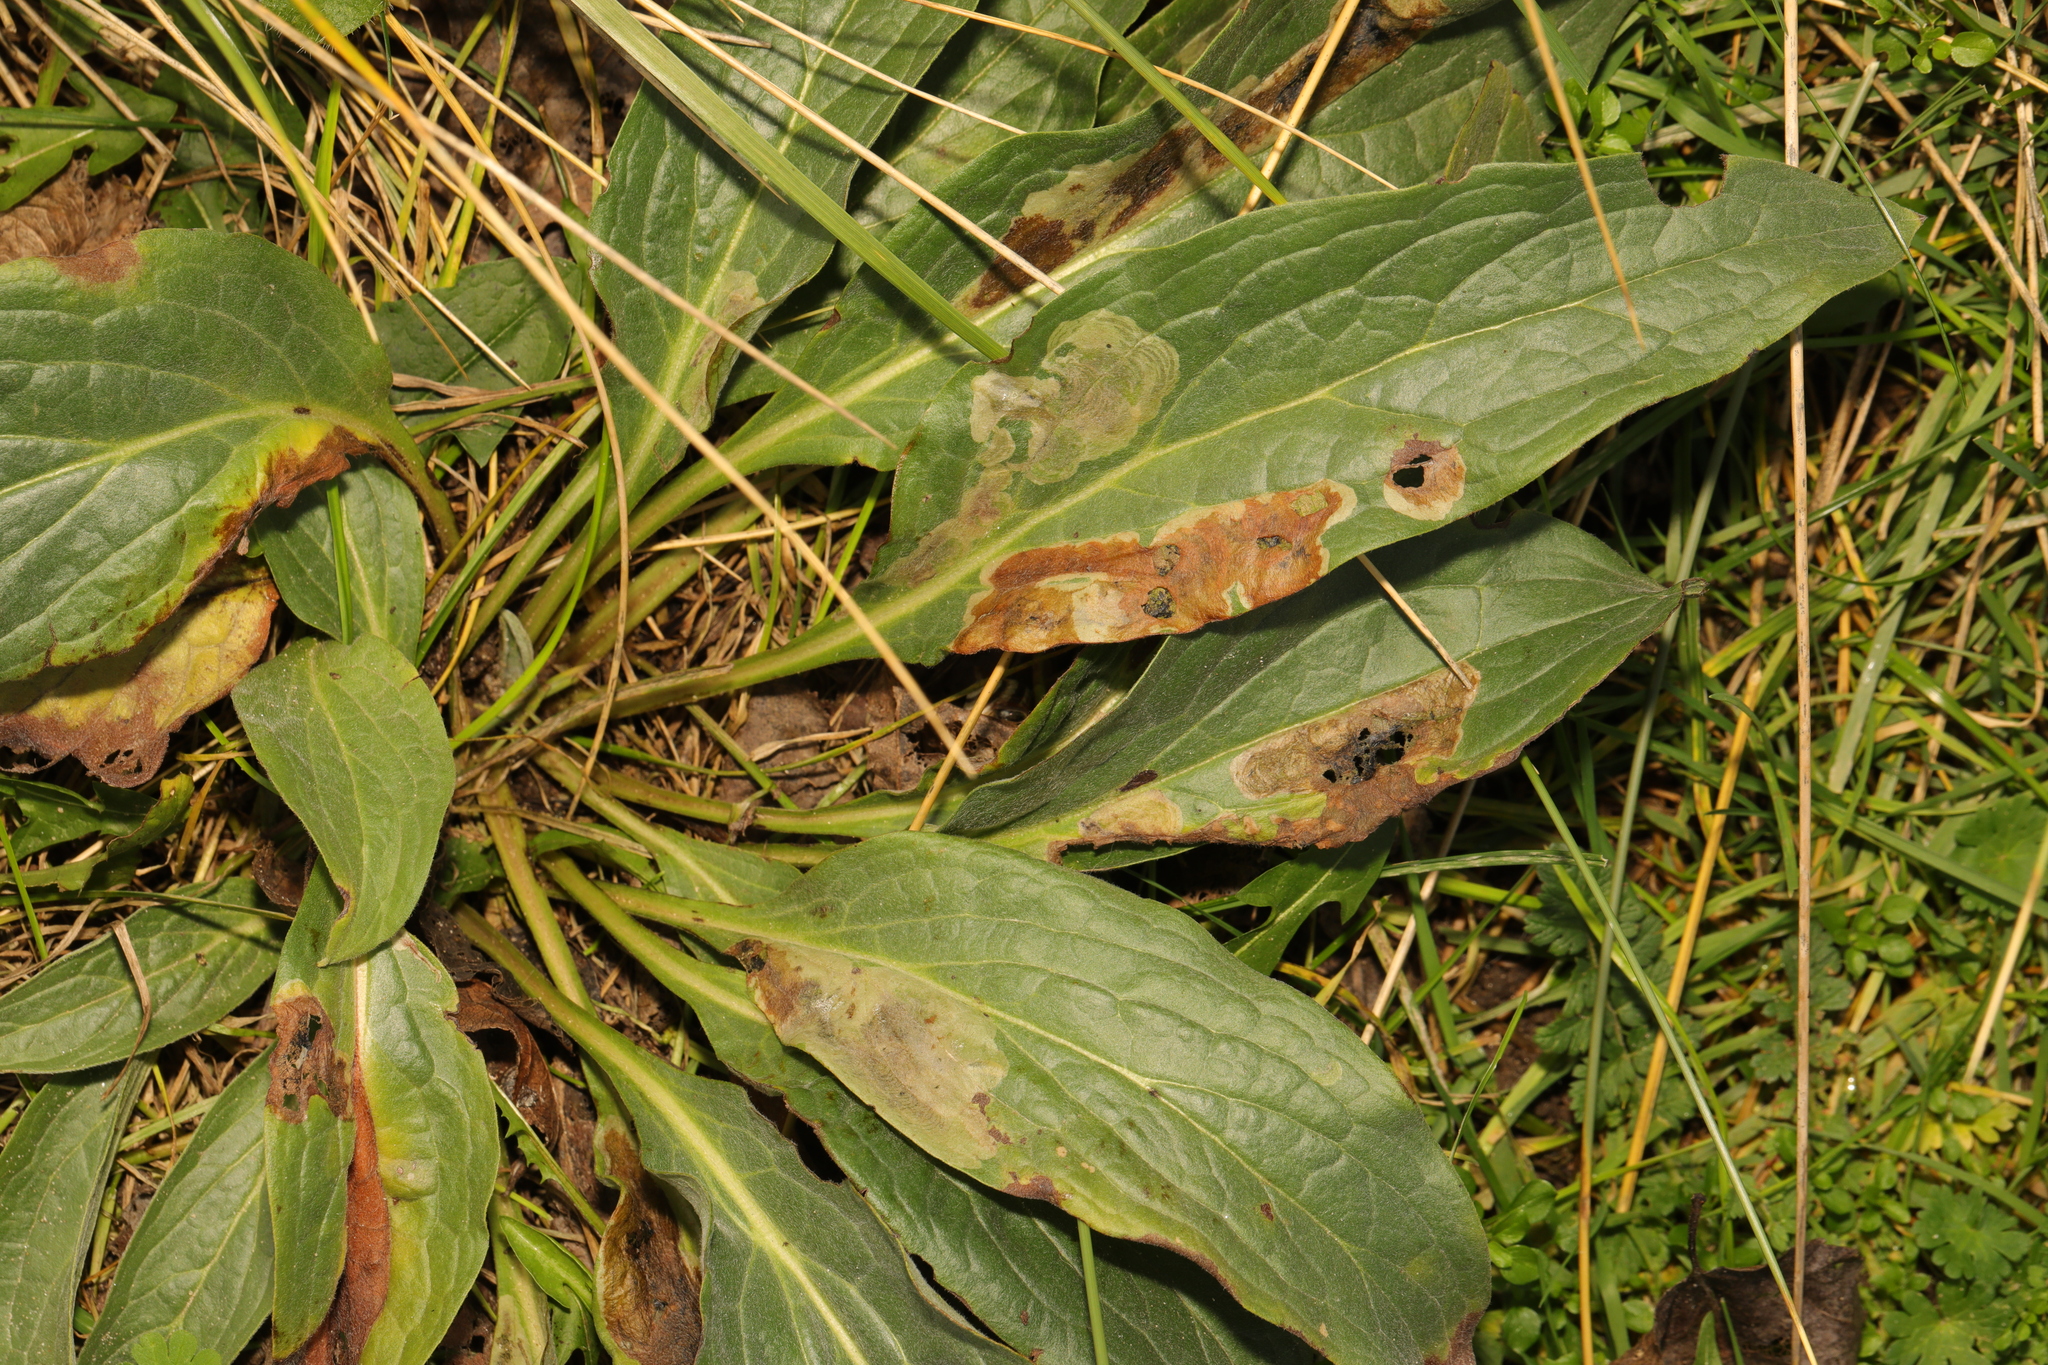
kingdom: Plantae
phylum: Tracheophyta
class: Magnoliopsida
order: Boraginales
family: Boraginaceae
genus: Cynoglossum
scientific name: Cynoglossum officinale
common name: Hound's-tongue
